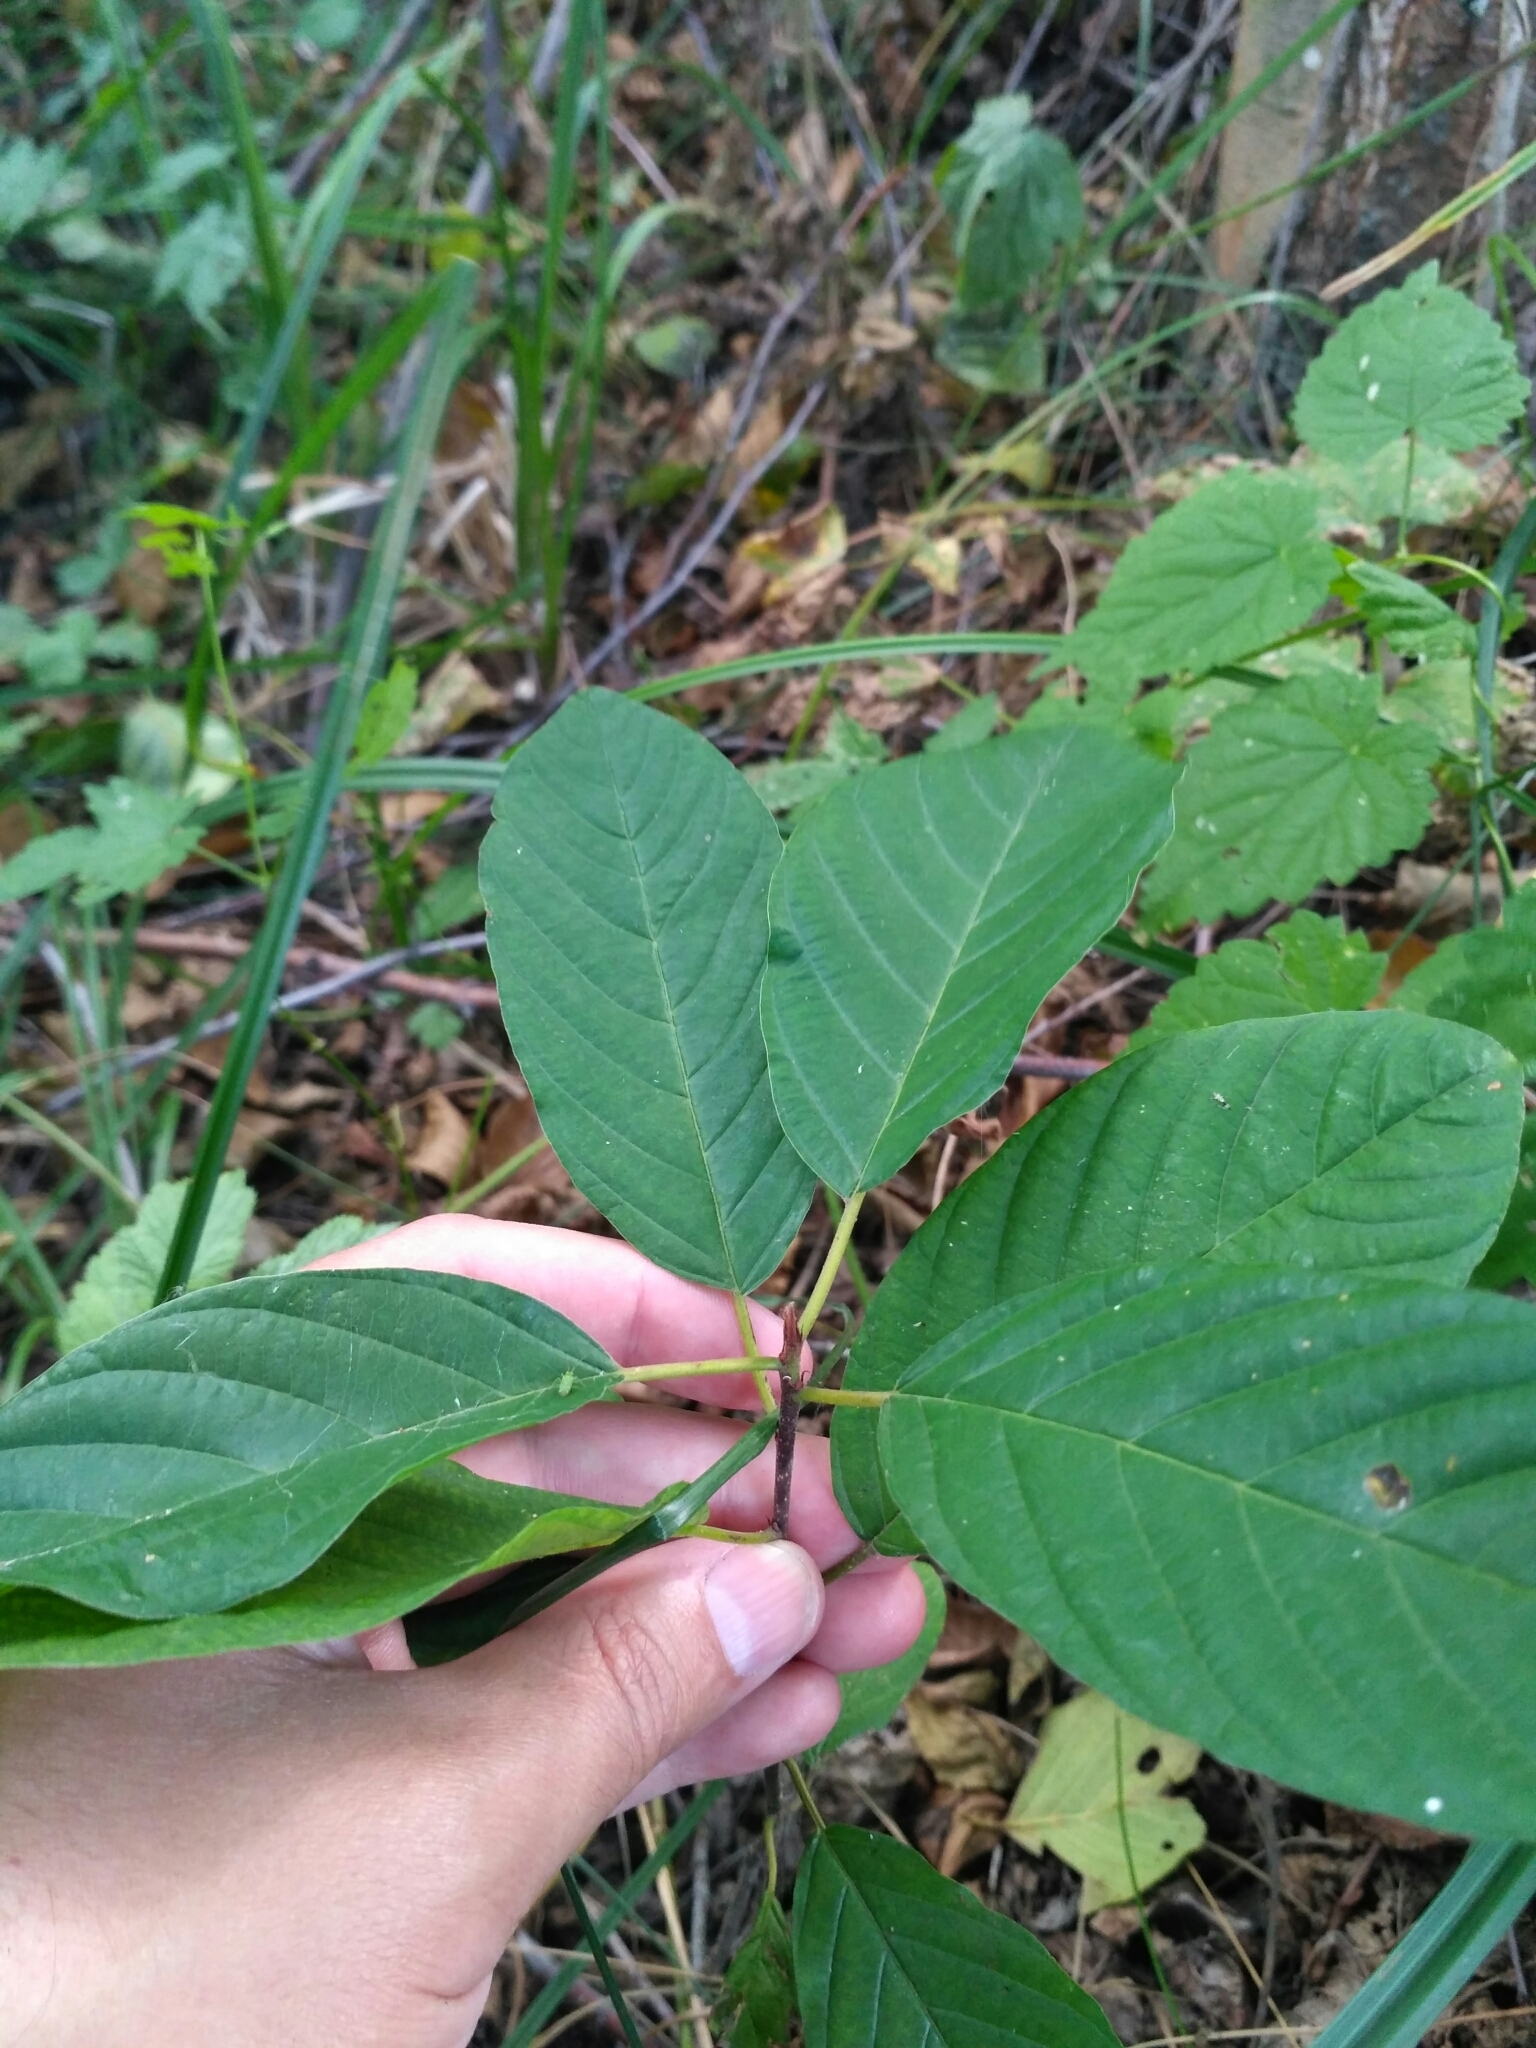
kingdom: Plantae
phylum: Tracheophyta
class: Magnoliopsida
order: Rosales
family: Rhamnaceae
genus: Frangula
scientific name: Frangula alnus
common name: Alder buckthorn
